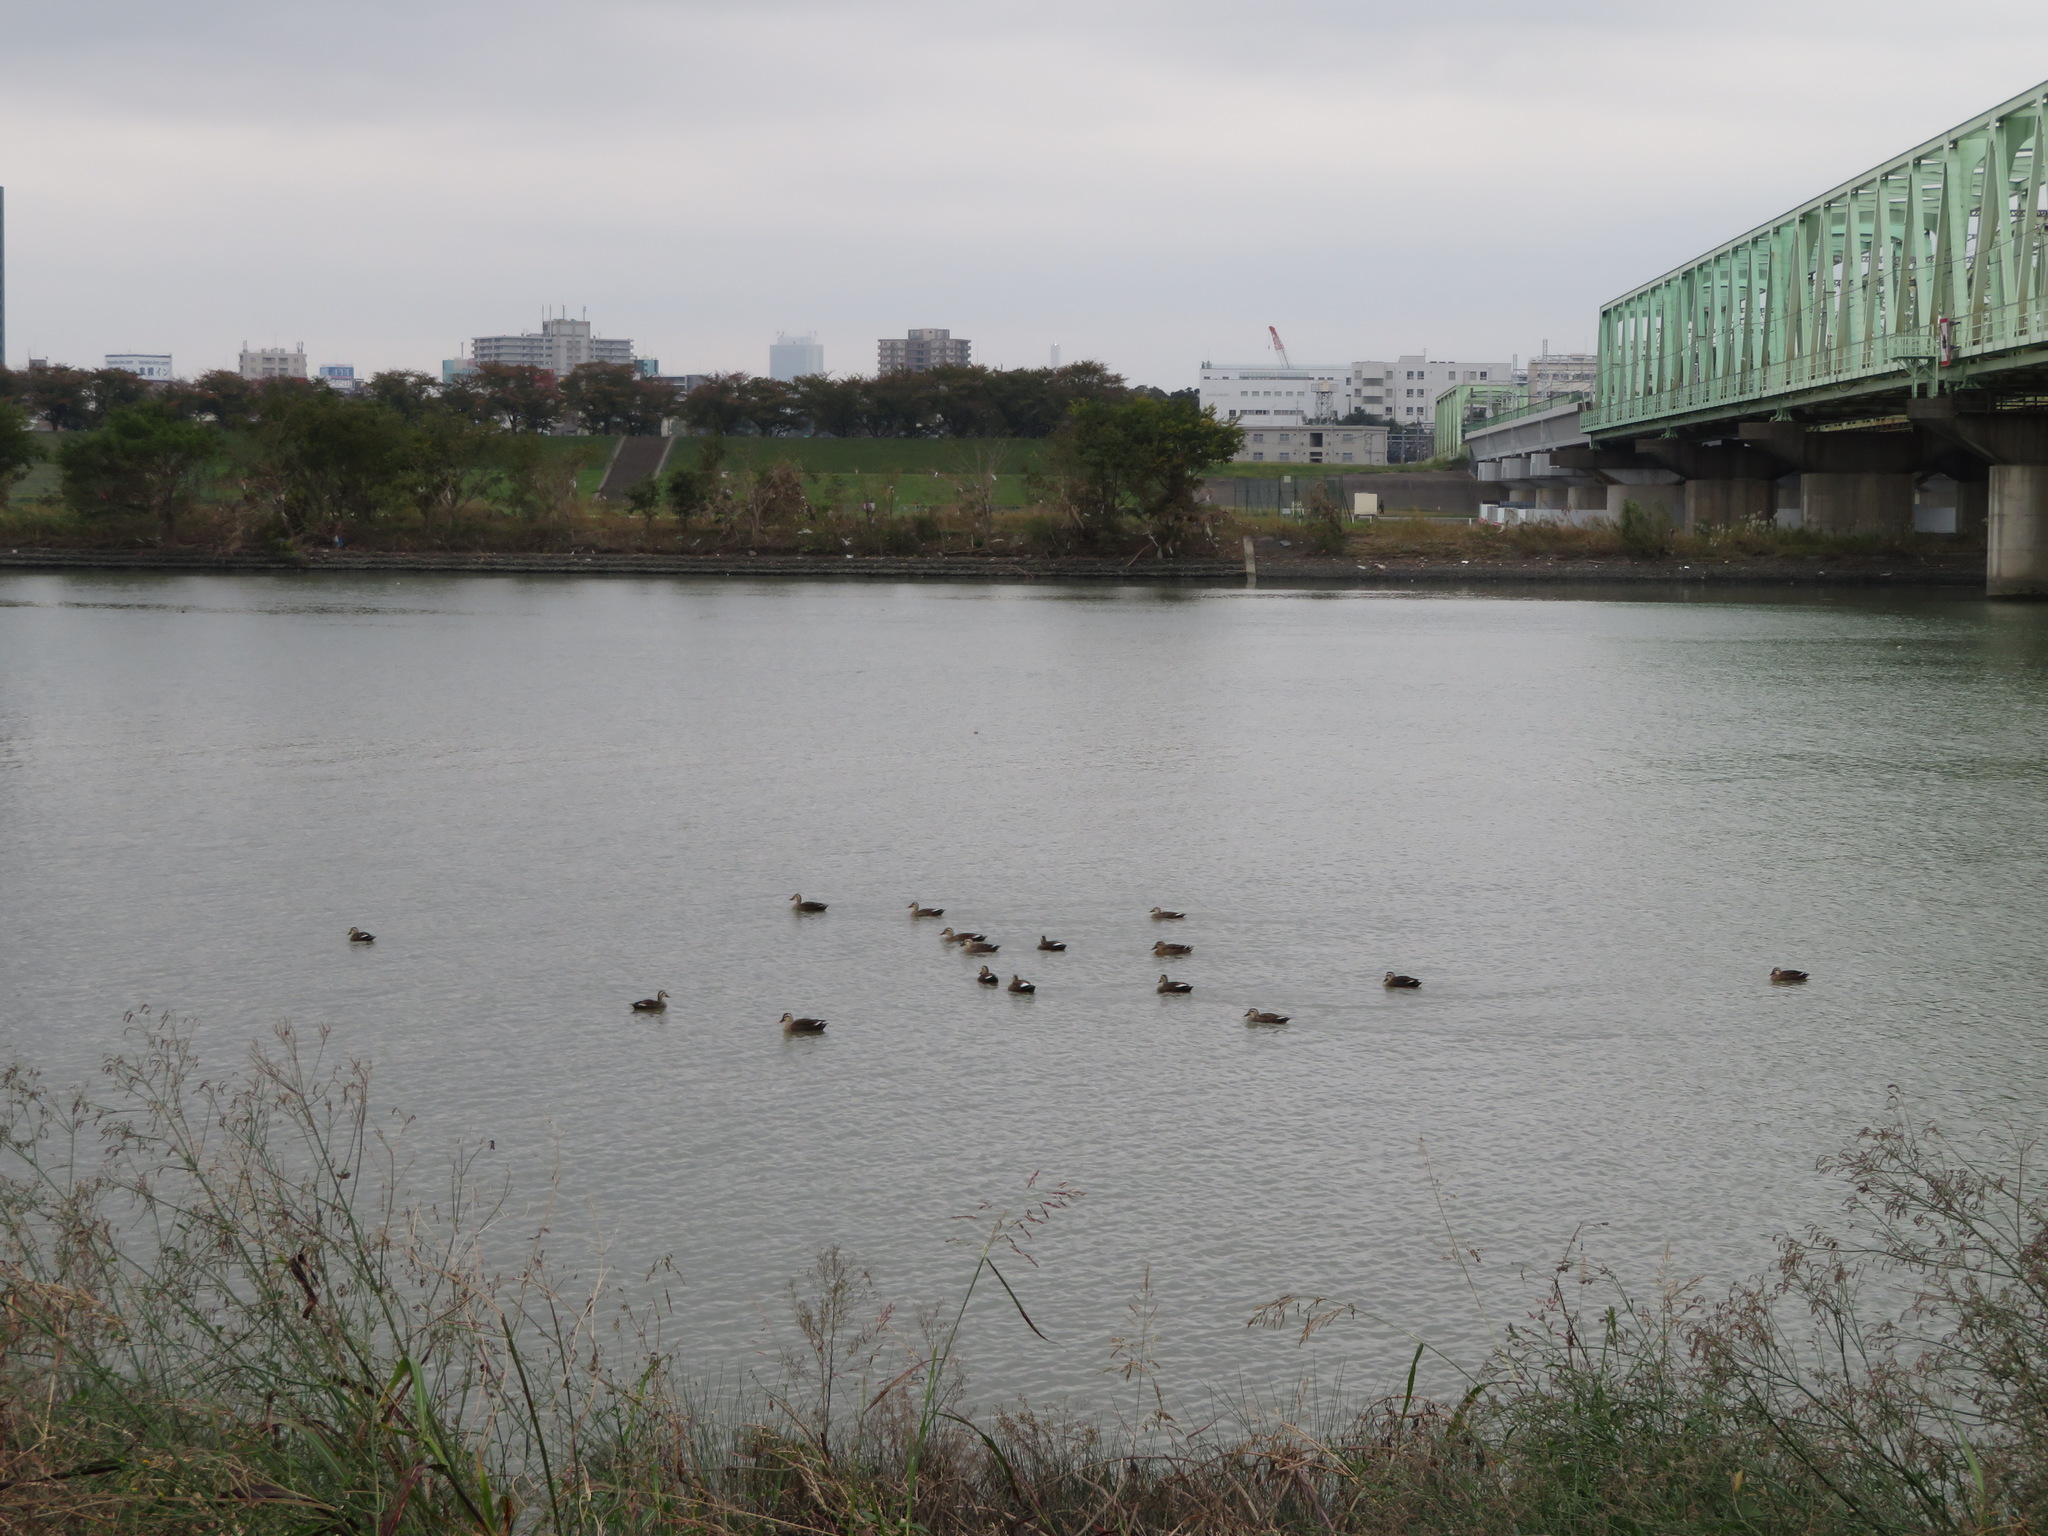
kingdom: Animalia
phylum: Chordata
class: Aves
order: Anseriformes
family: Anatidae
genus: Anas
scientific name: Anas zonorhyncha
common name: Eastern spot-billed duck
